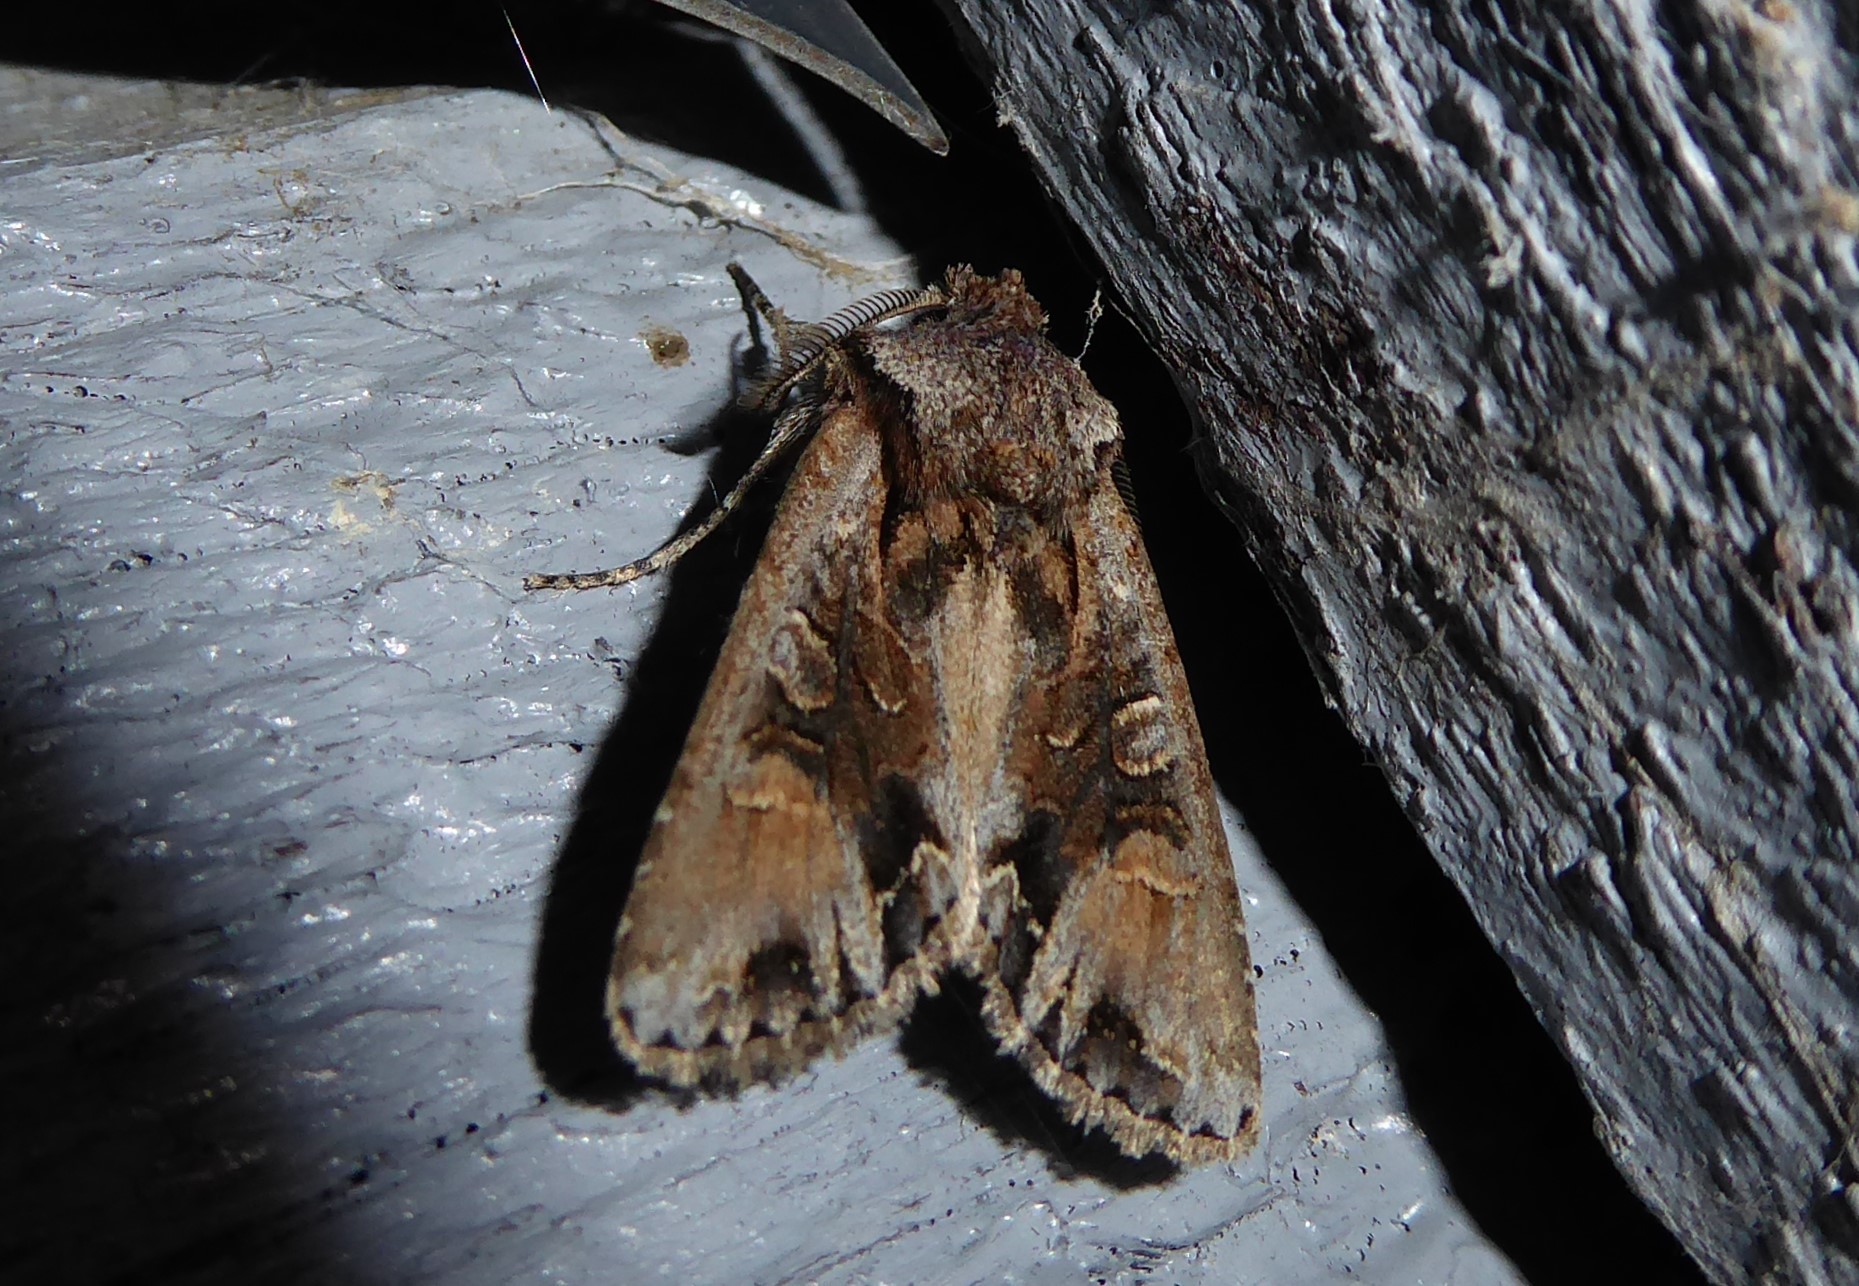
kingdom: Animalia
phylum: Arthropoda
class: Insecta
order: Lepidoptera
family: Noctuidae
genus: Ichneutica
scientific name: Ichneutica
